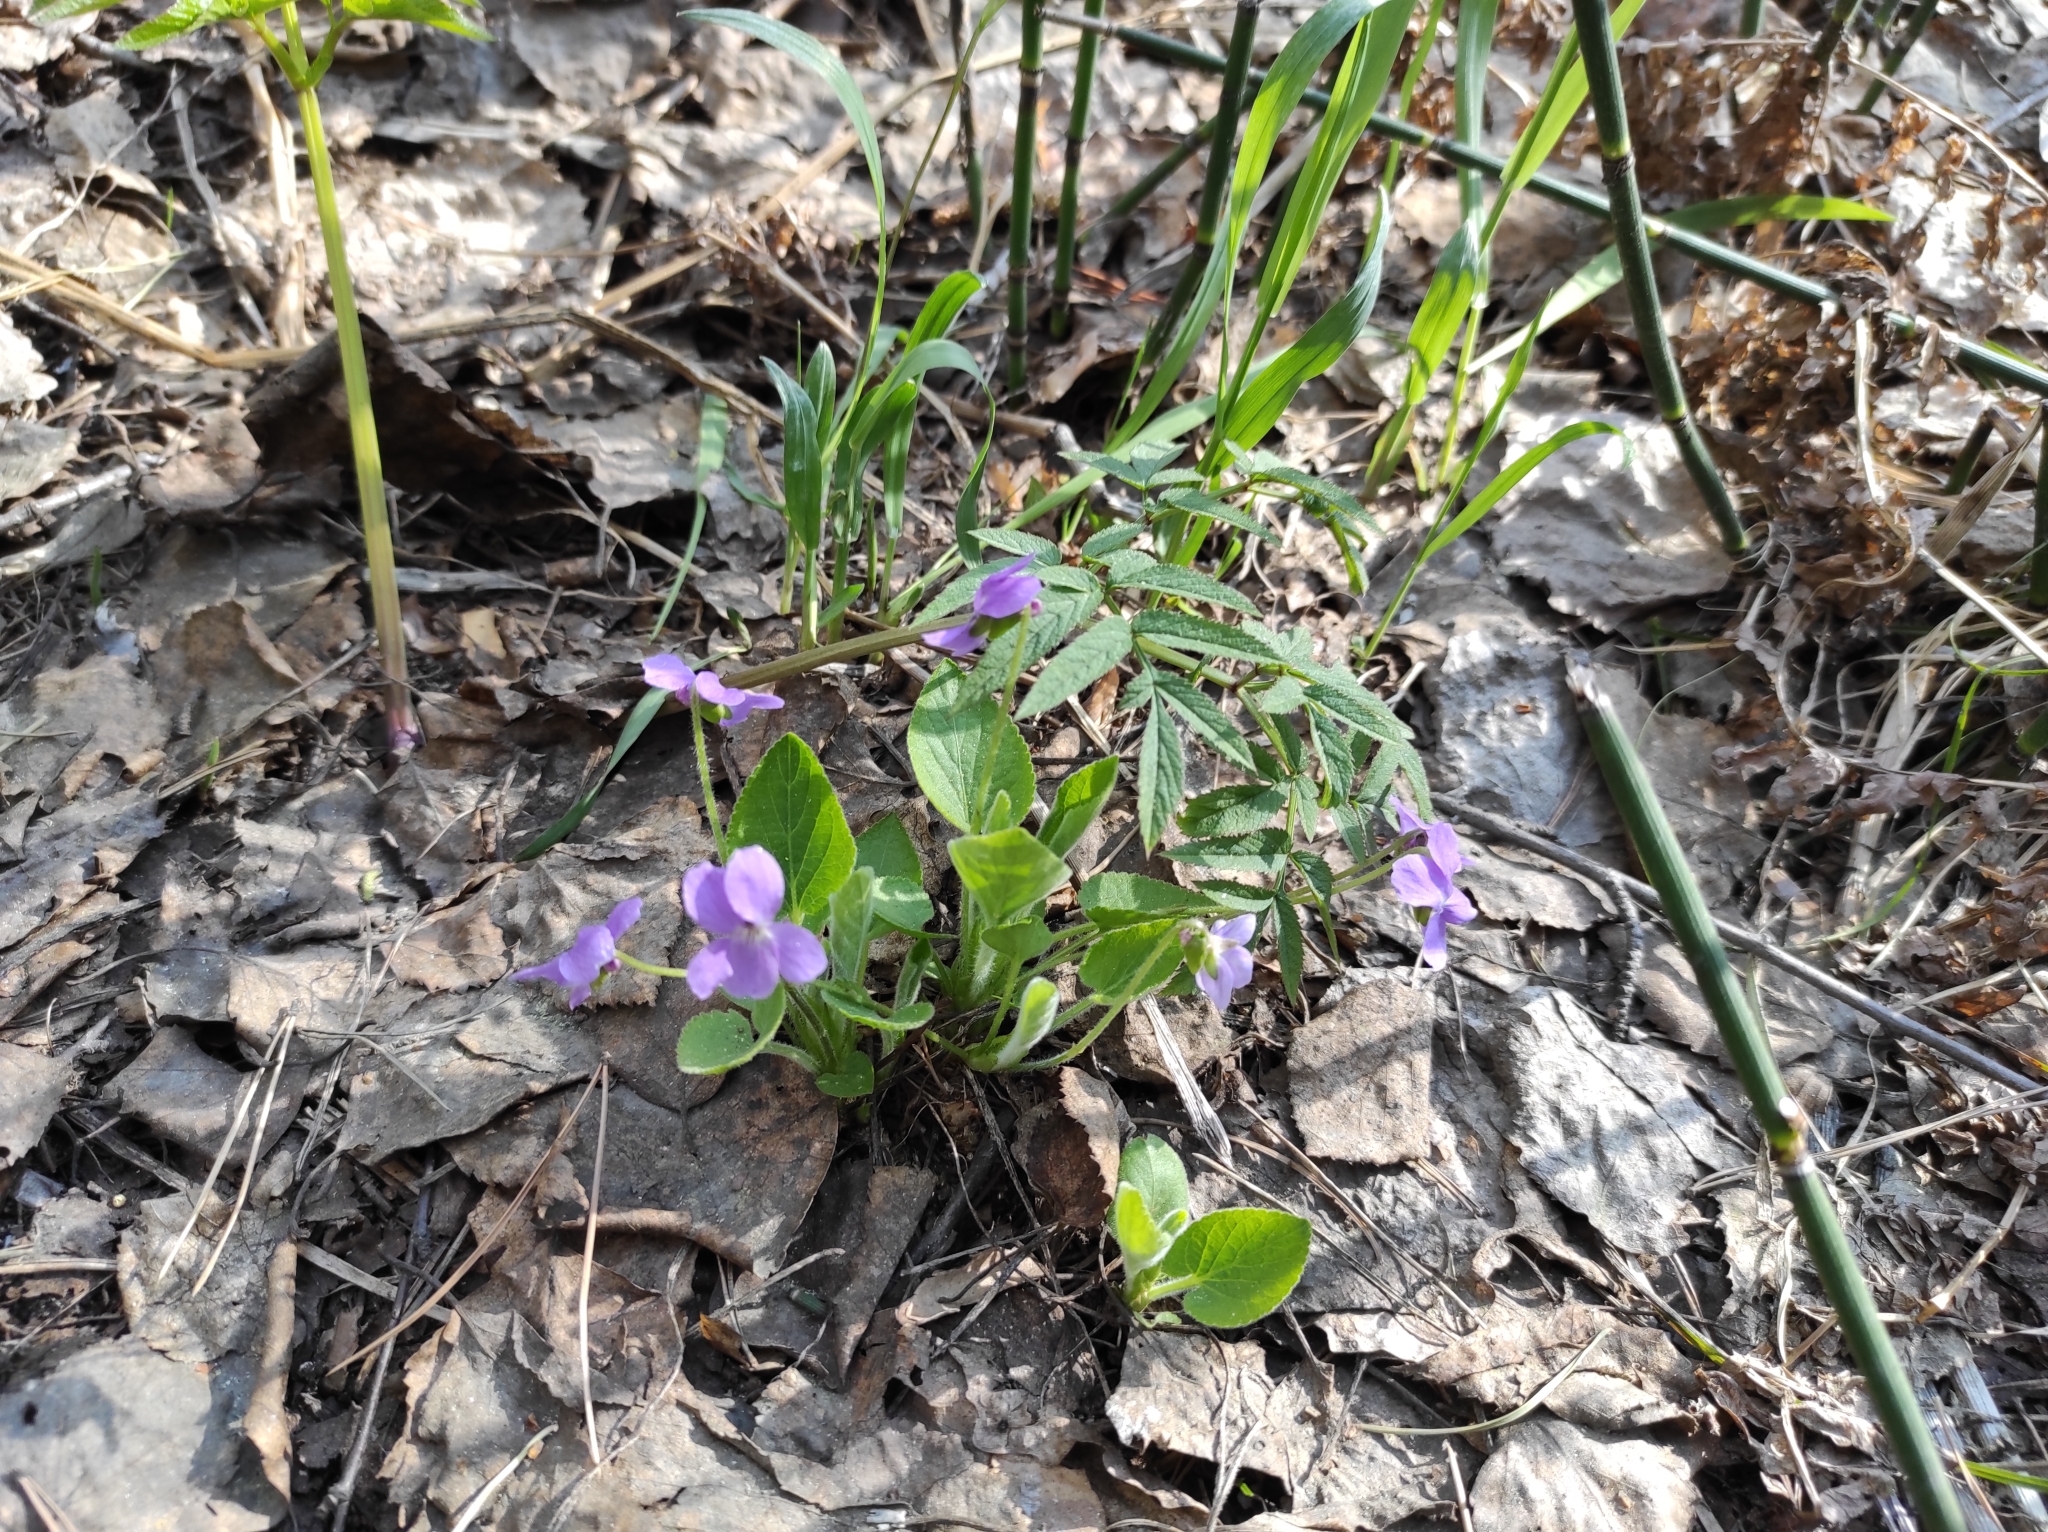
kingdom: Plantae
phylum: Tracheophyta
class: Magnoliopsida
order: Malpighiales
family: Violaceae
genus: Viola
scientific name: Viola hirta
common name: Hairy violet
